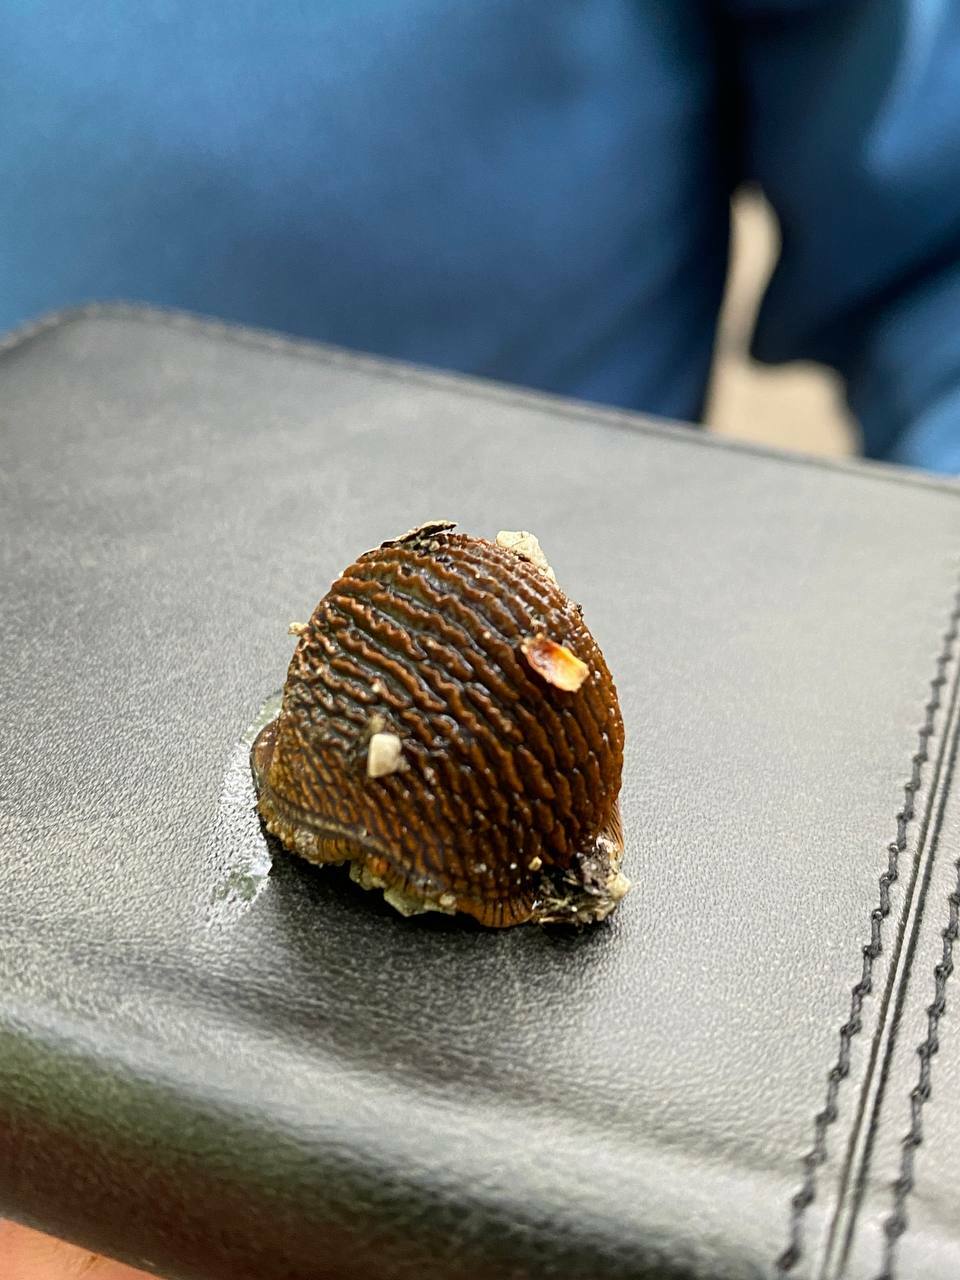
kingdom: Animalia
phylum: Mollusca
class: Gastropoda
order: Stylommatophora
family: Arionidae
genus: Arion
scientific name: Arion vulgaris
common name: Lusitanian slug
